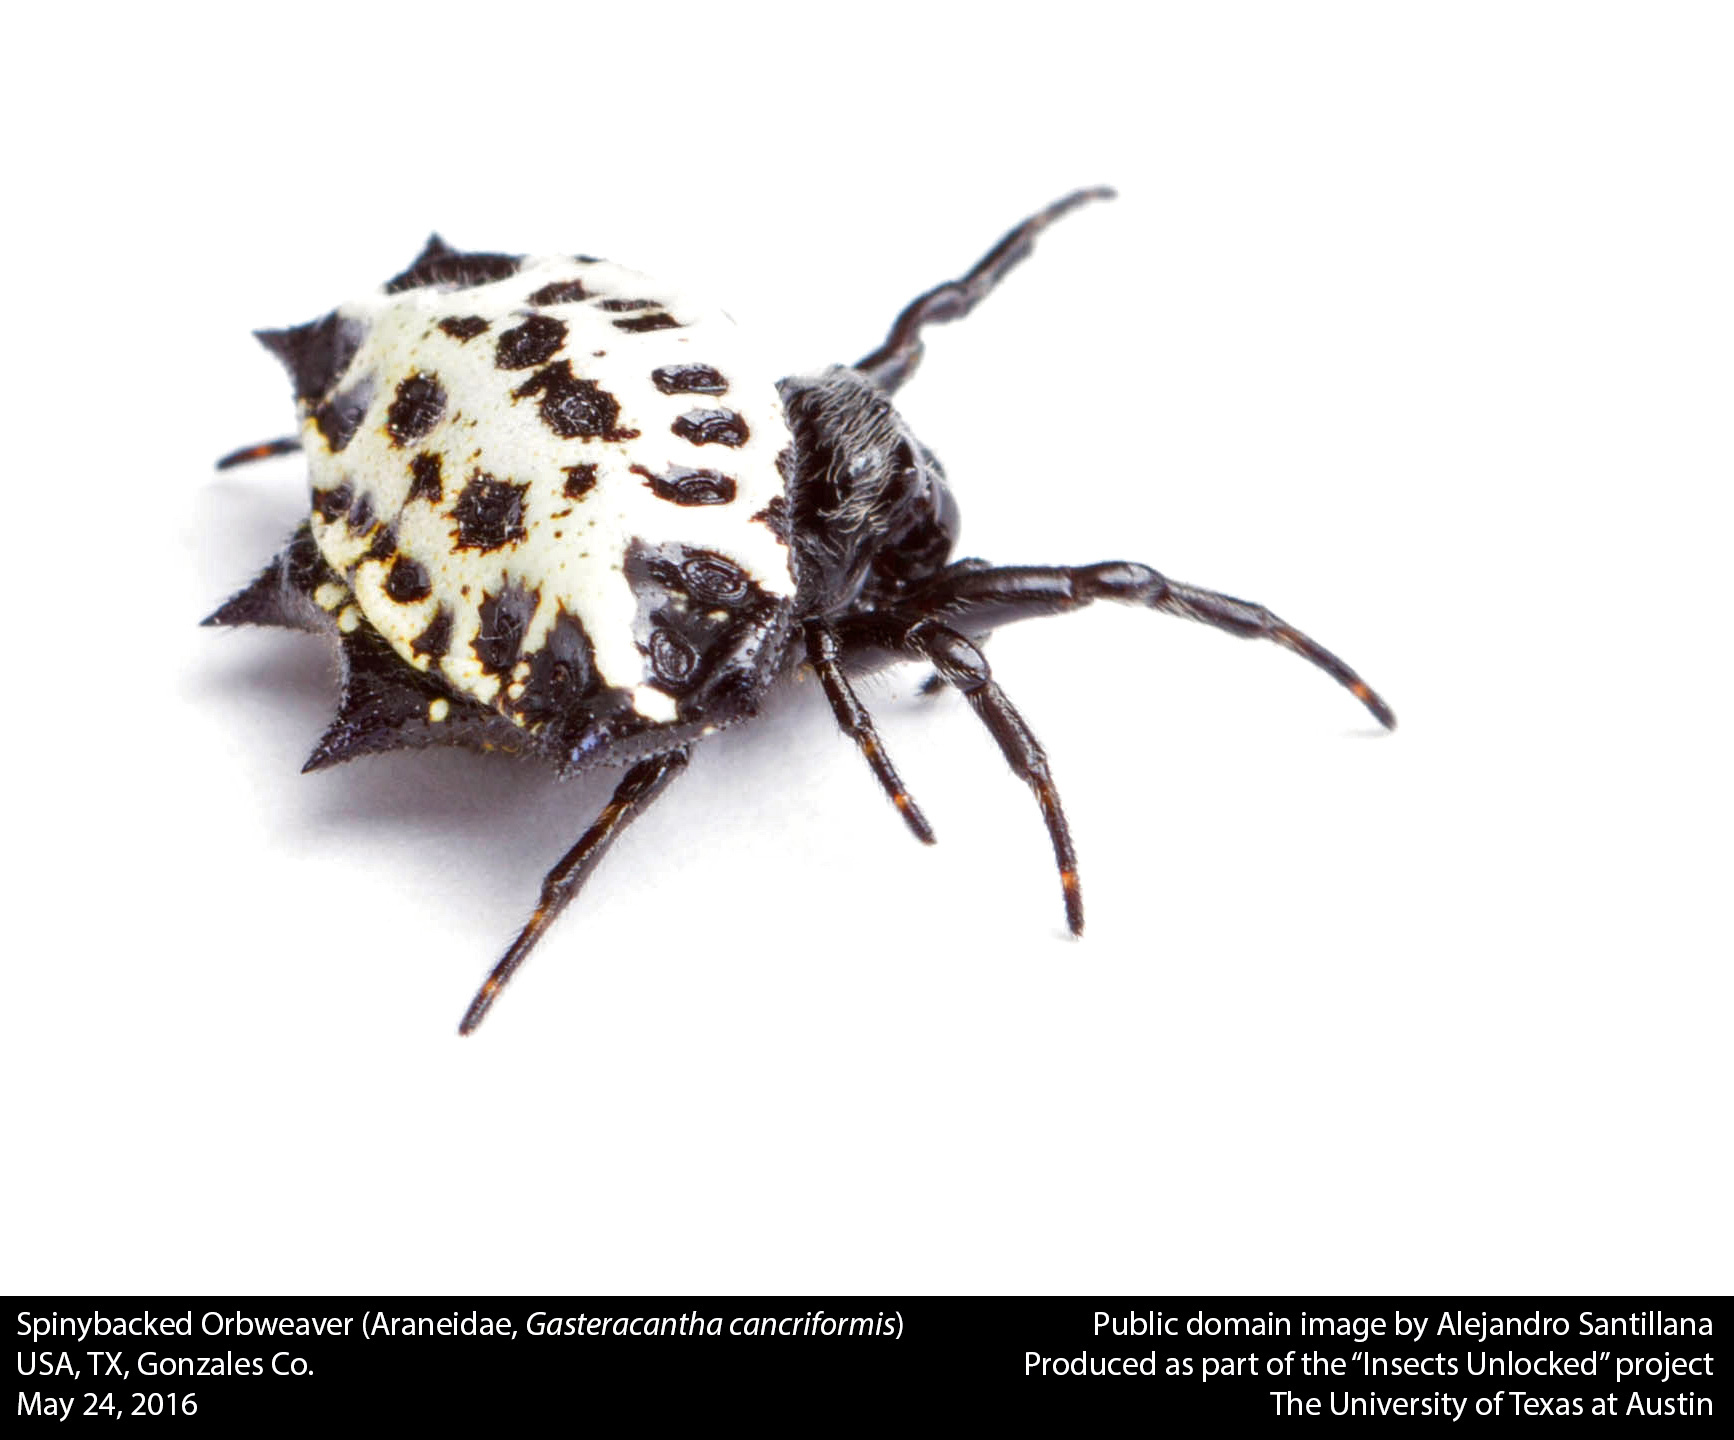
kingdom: Animalia
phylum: Arthropoda
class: Arachnida
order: Araneae
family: Araneidae
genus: Gasteracantha
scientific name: Gasteracantha cancriformis
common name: Orb weavers
